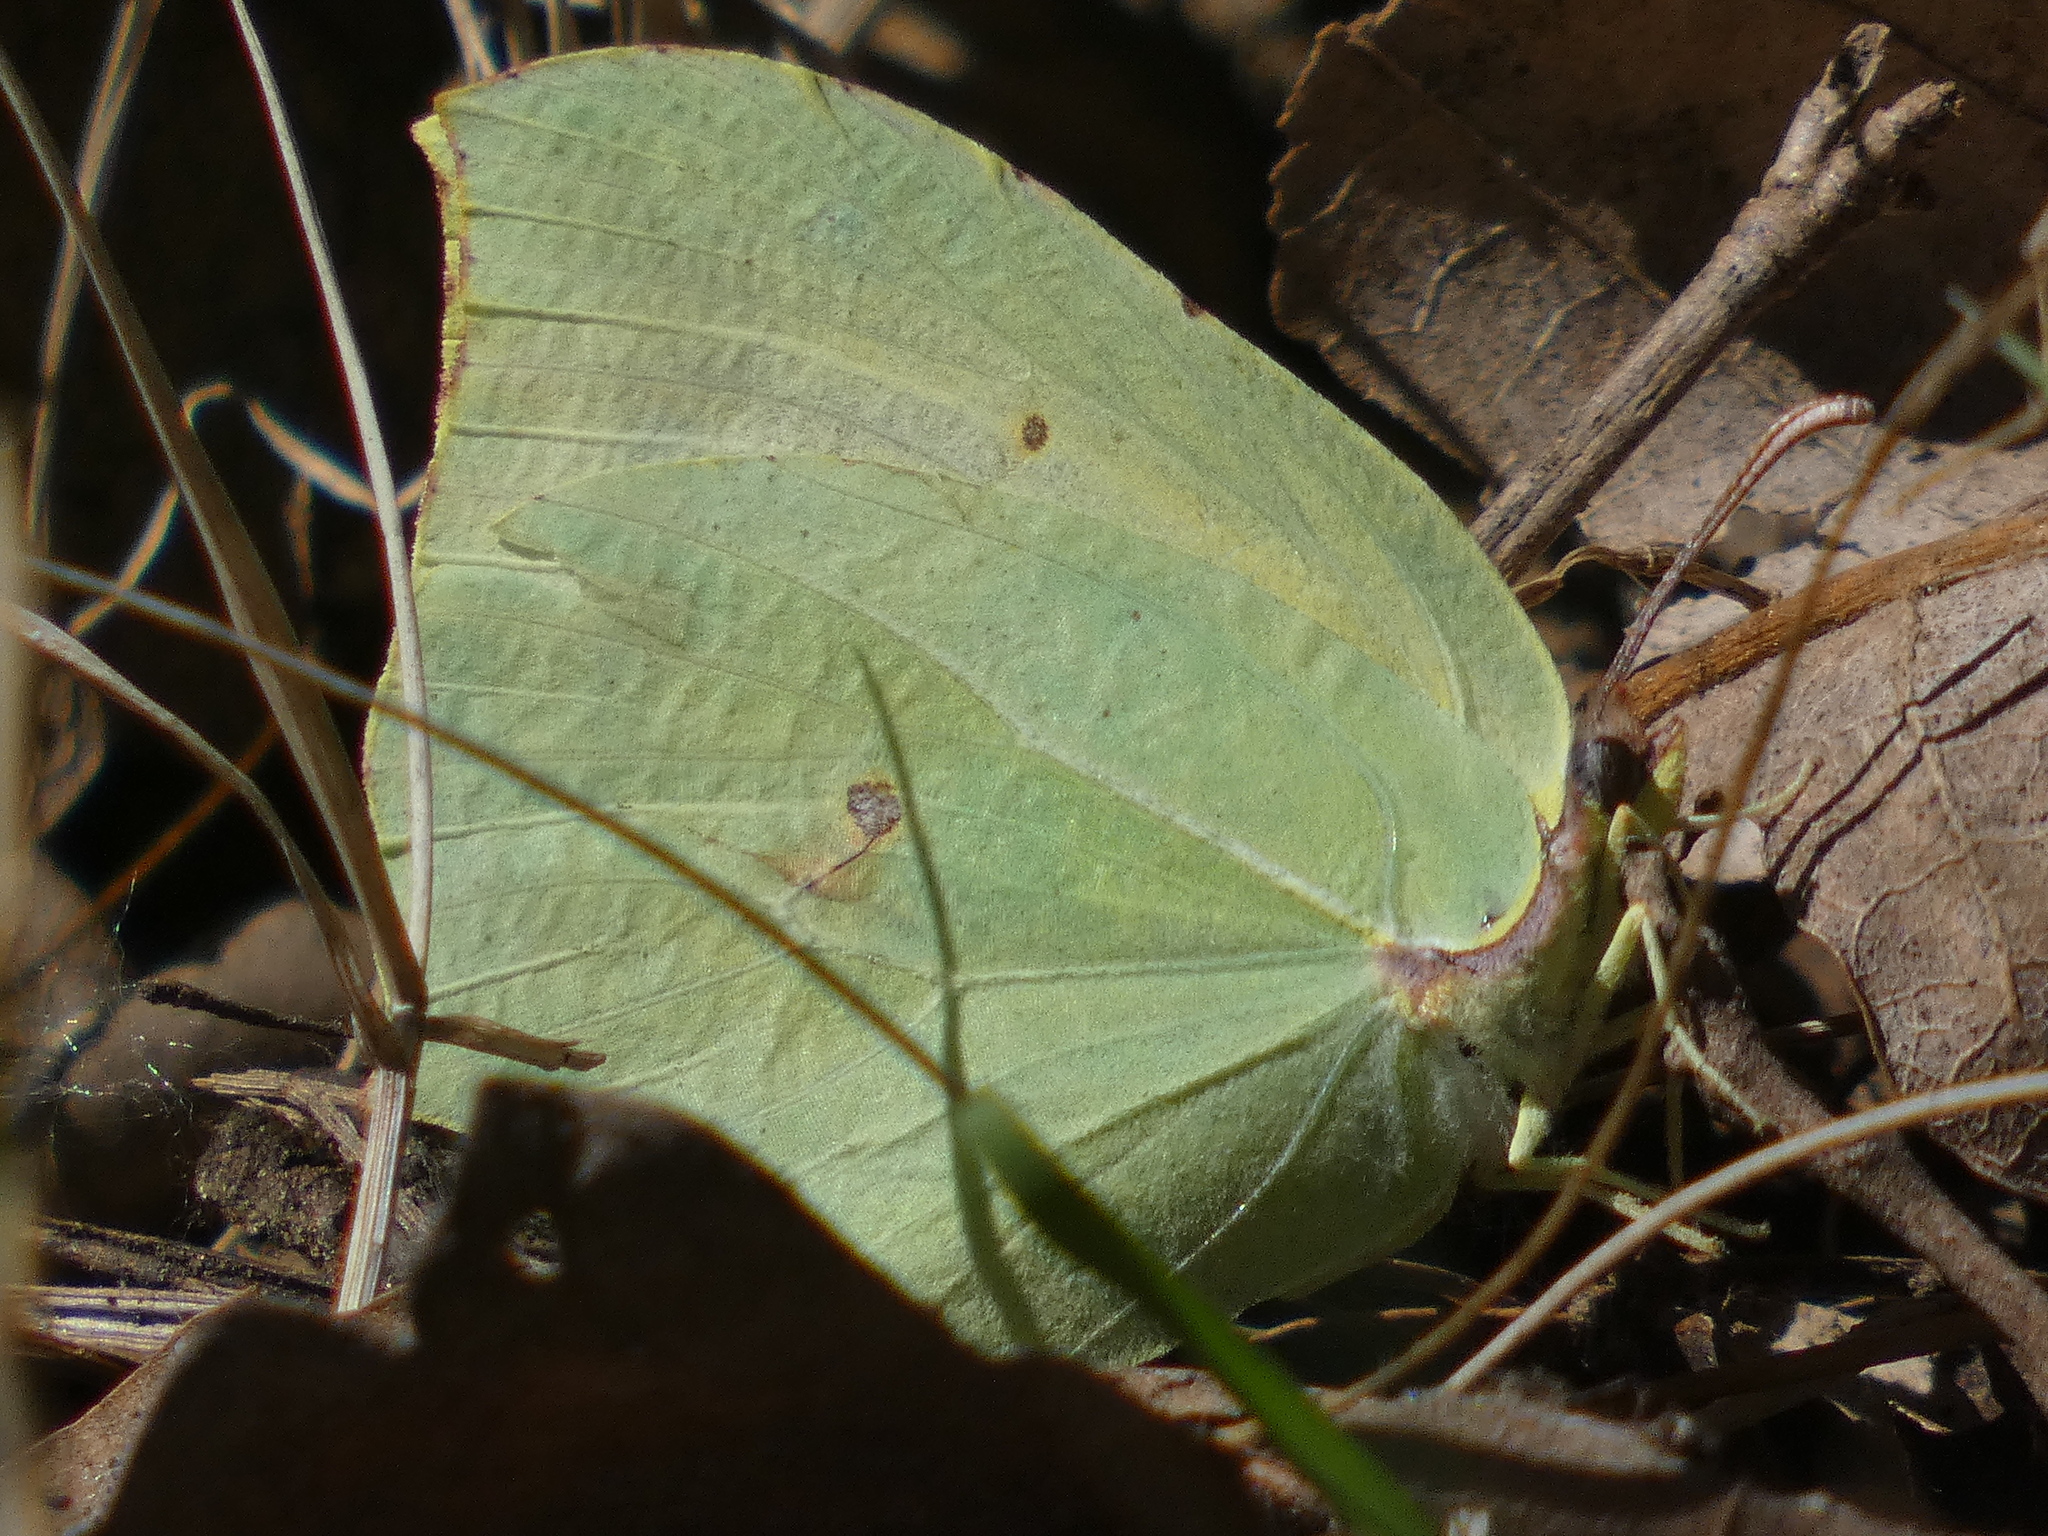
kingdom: Animalia
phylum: Arthropoda
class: Insecta
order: Lepidoptera
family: Pieridae
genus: Gonepteryx
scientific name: Gonepteryx cleopatra
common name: Cleopatra
